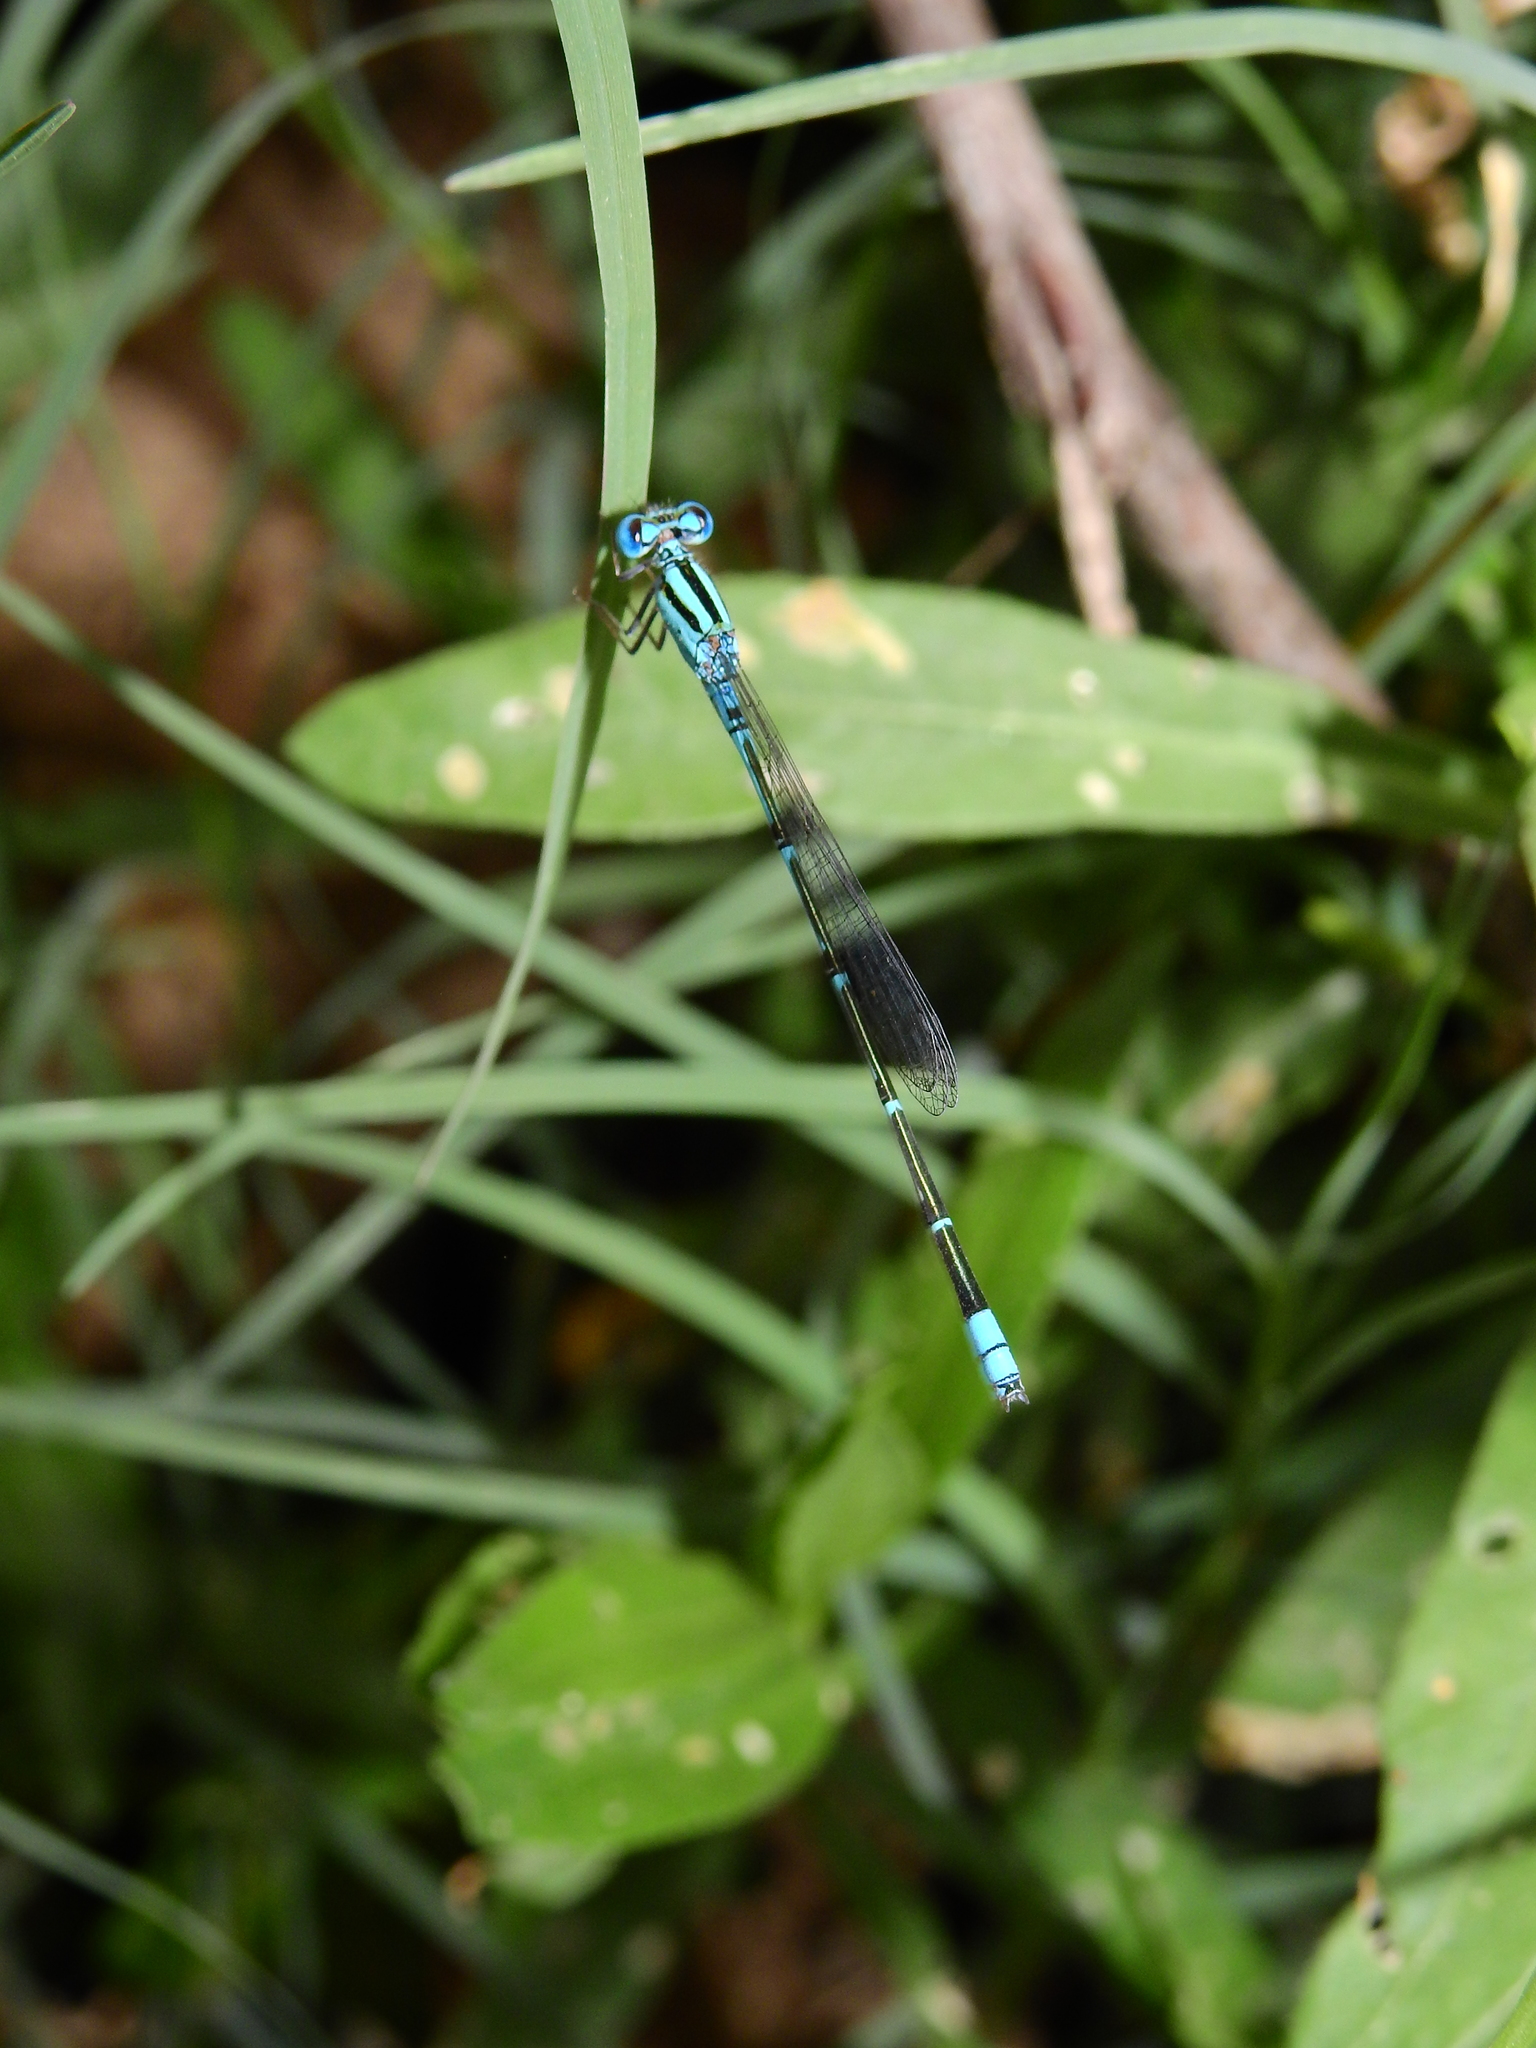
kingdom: Animalia
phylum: Arthropoda
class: Insecta
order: Odonata
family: Coenagrionidae
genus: Pseudagrion
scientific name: Pseudagrion microcephalum
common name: Blue riverdamsel
